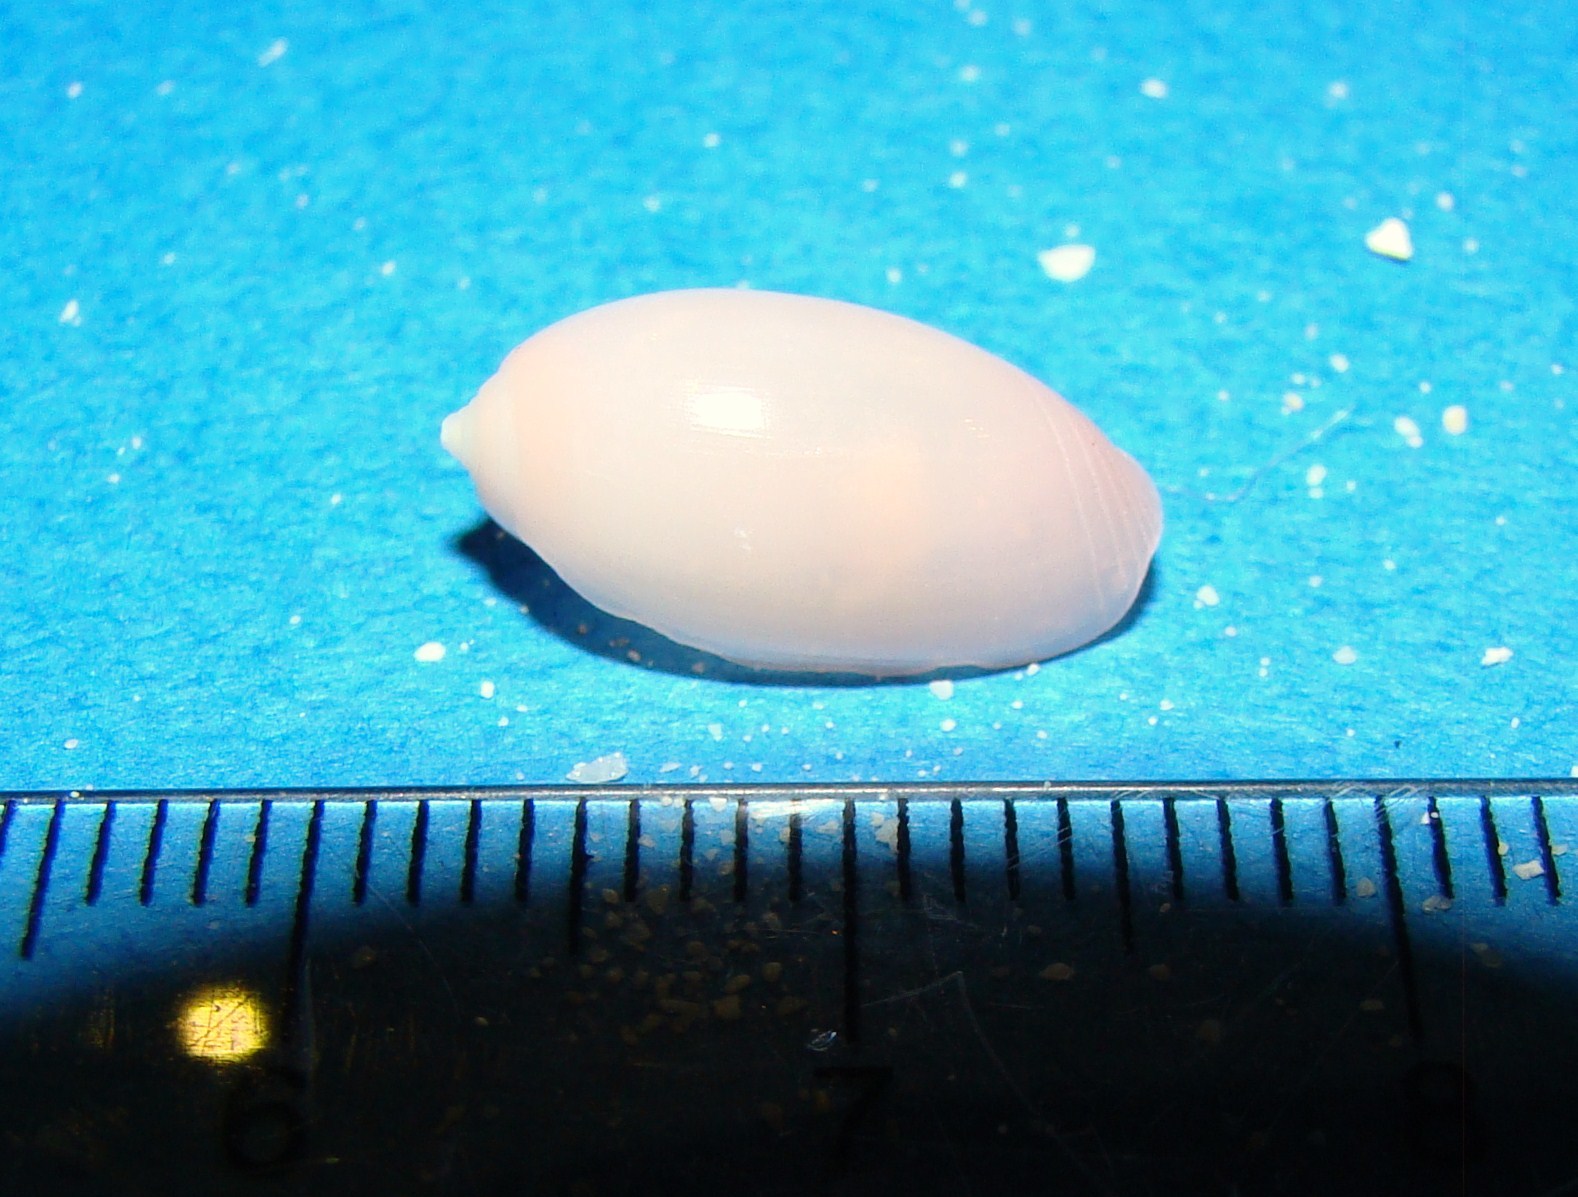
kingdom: Animalia
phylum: Mollusca
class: Gastropoda
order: Cephalaspidea
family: Acteonidae
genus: Pupa
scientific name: Pupa nitidula
